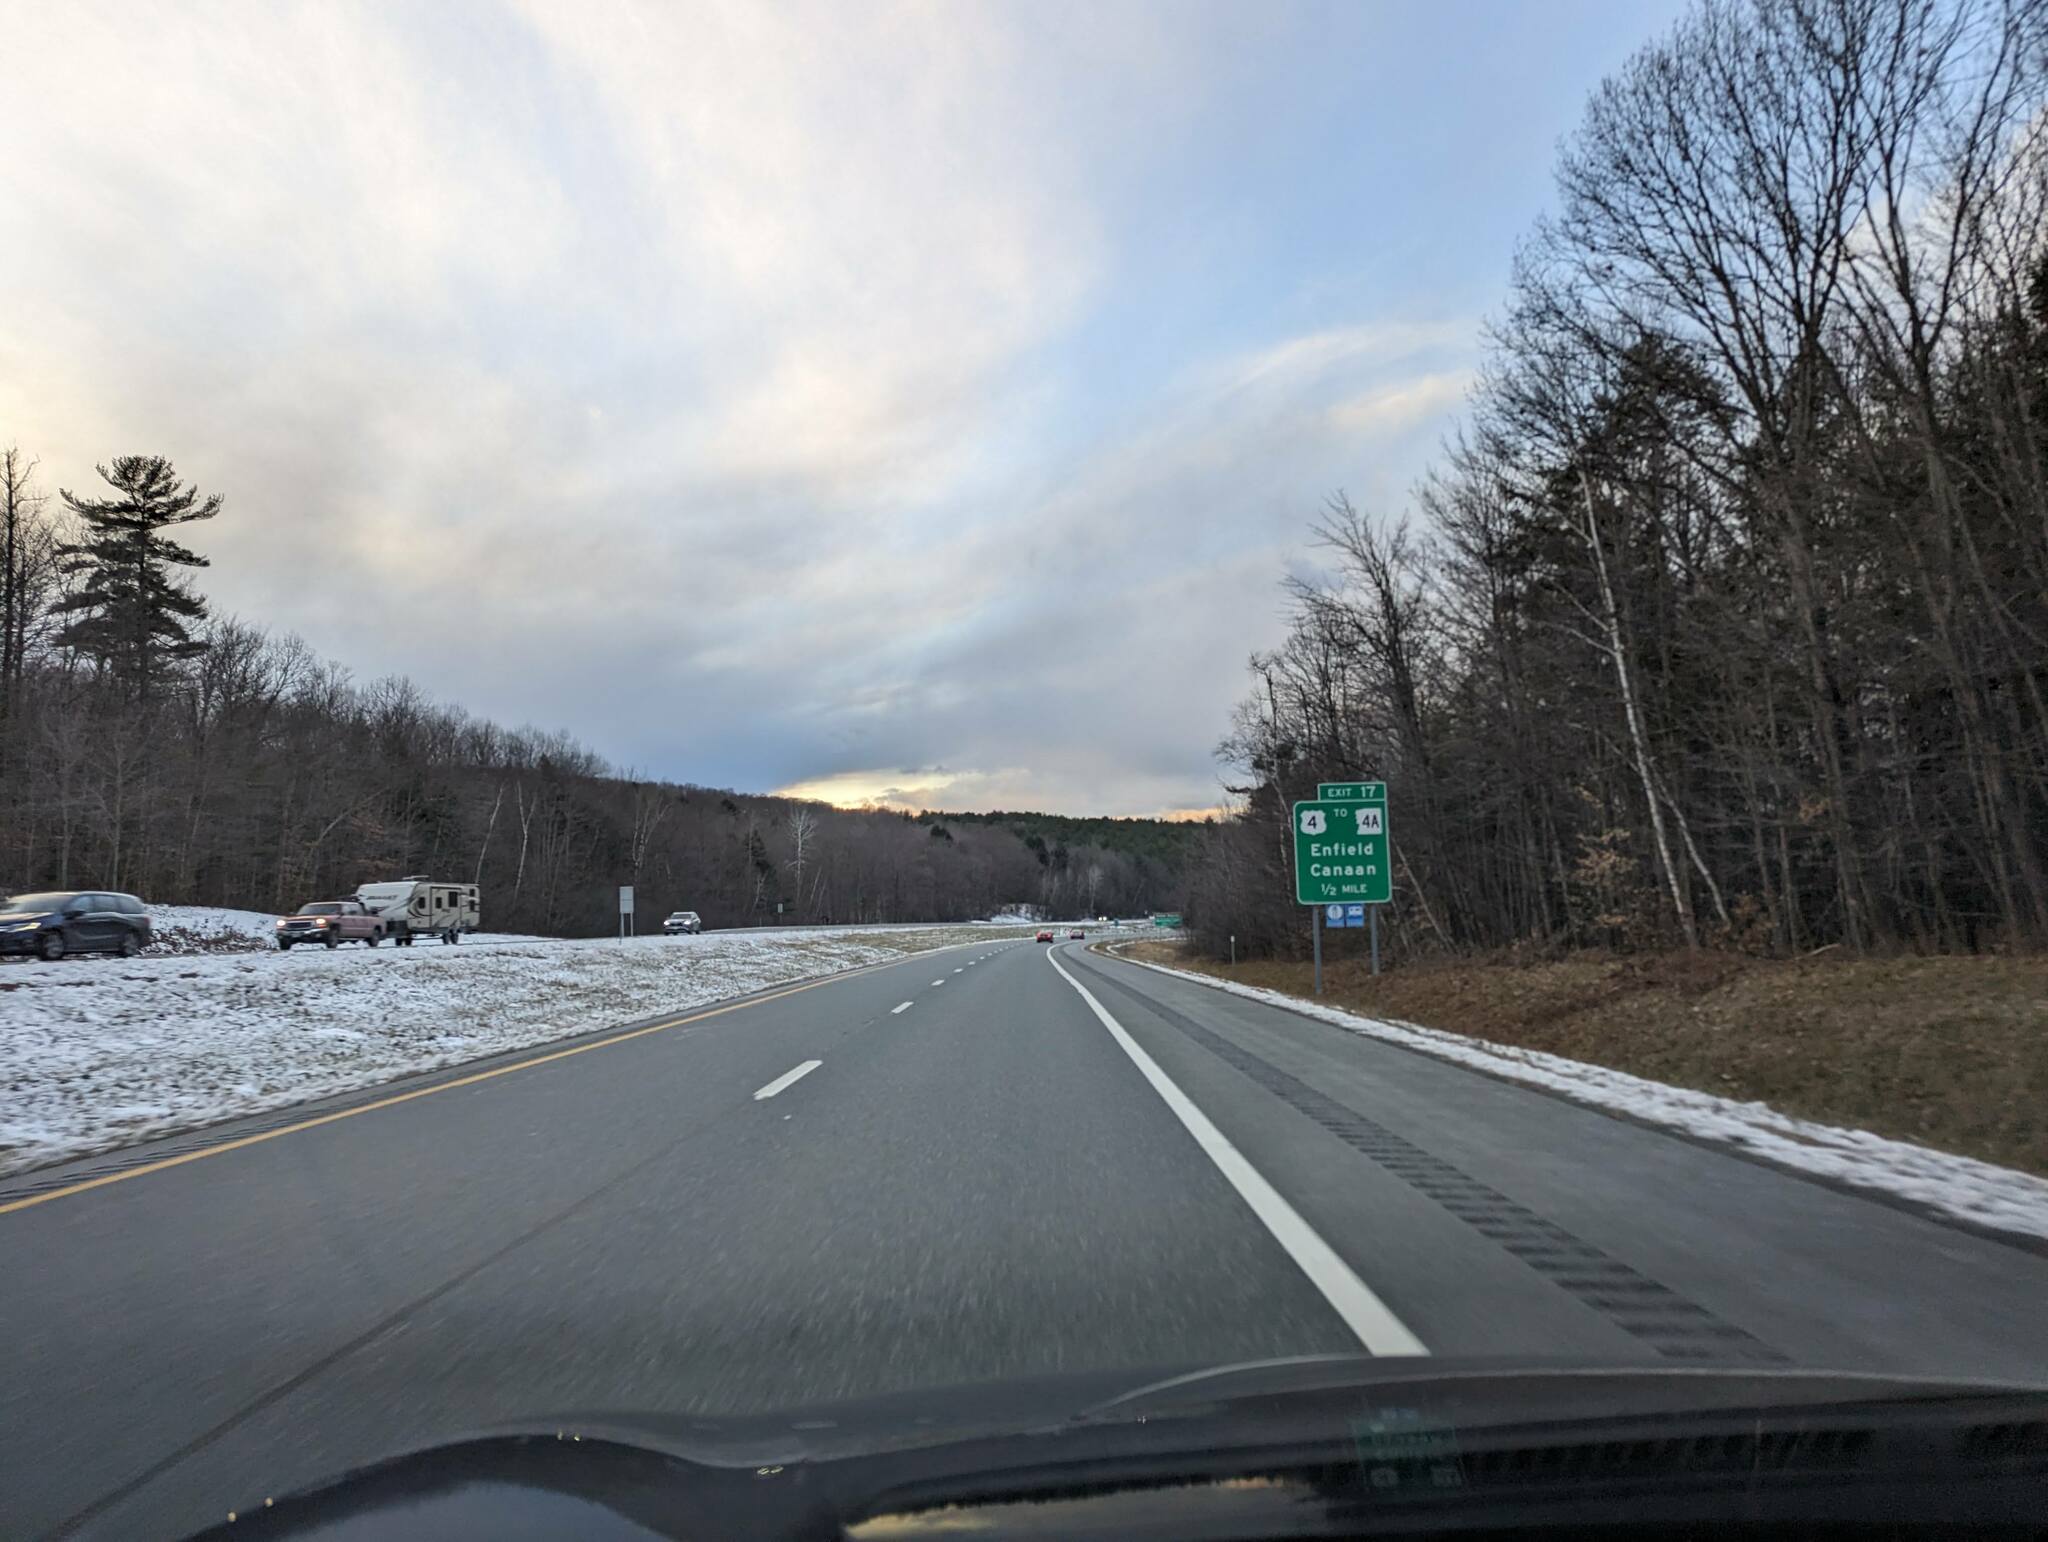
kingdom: Plantae
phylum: Tracheophyta
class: Pinopsida
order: Pinales
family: Pinaceae
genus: Pinus
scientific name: Pinus strobus
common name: Weymouth pine
